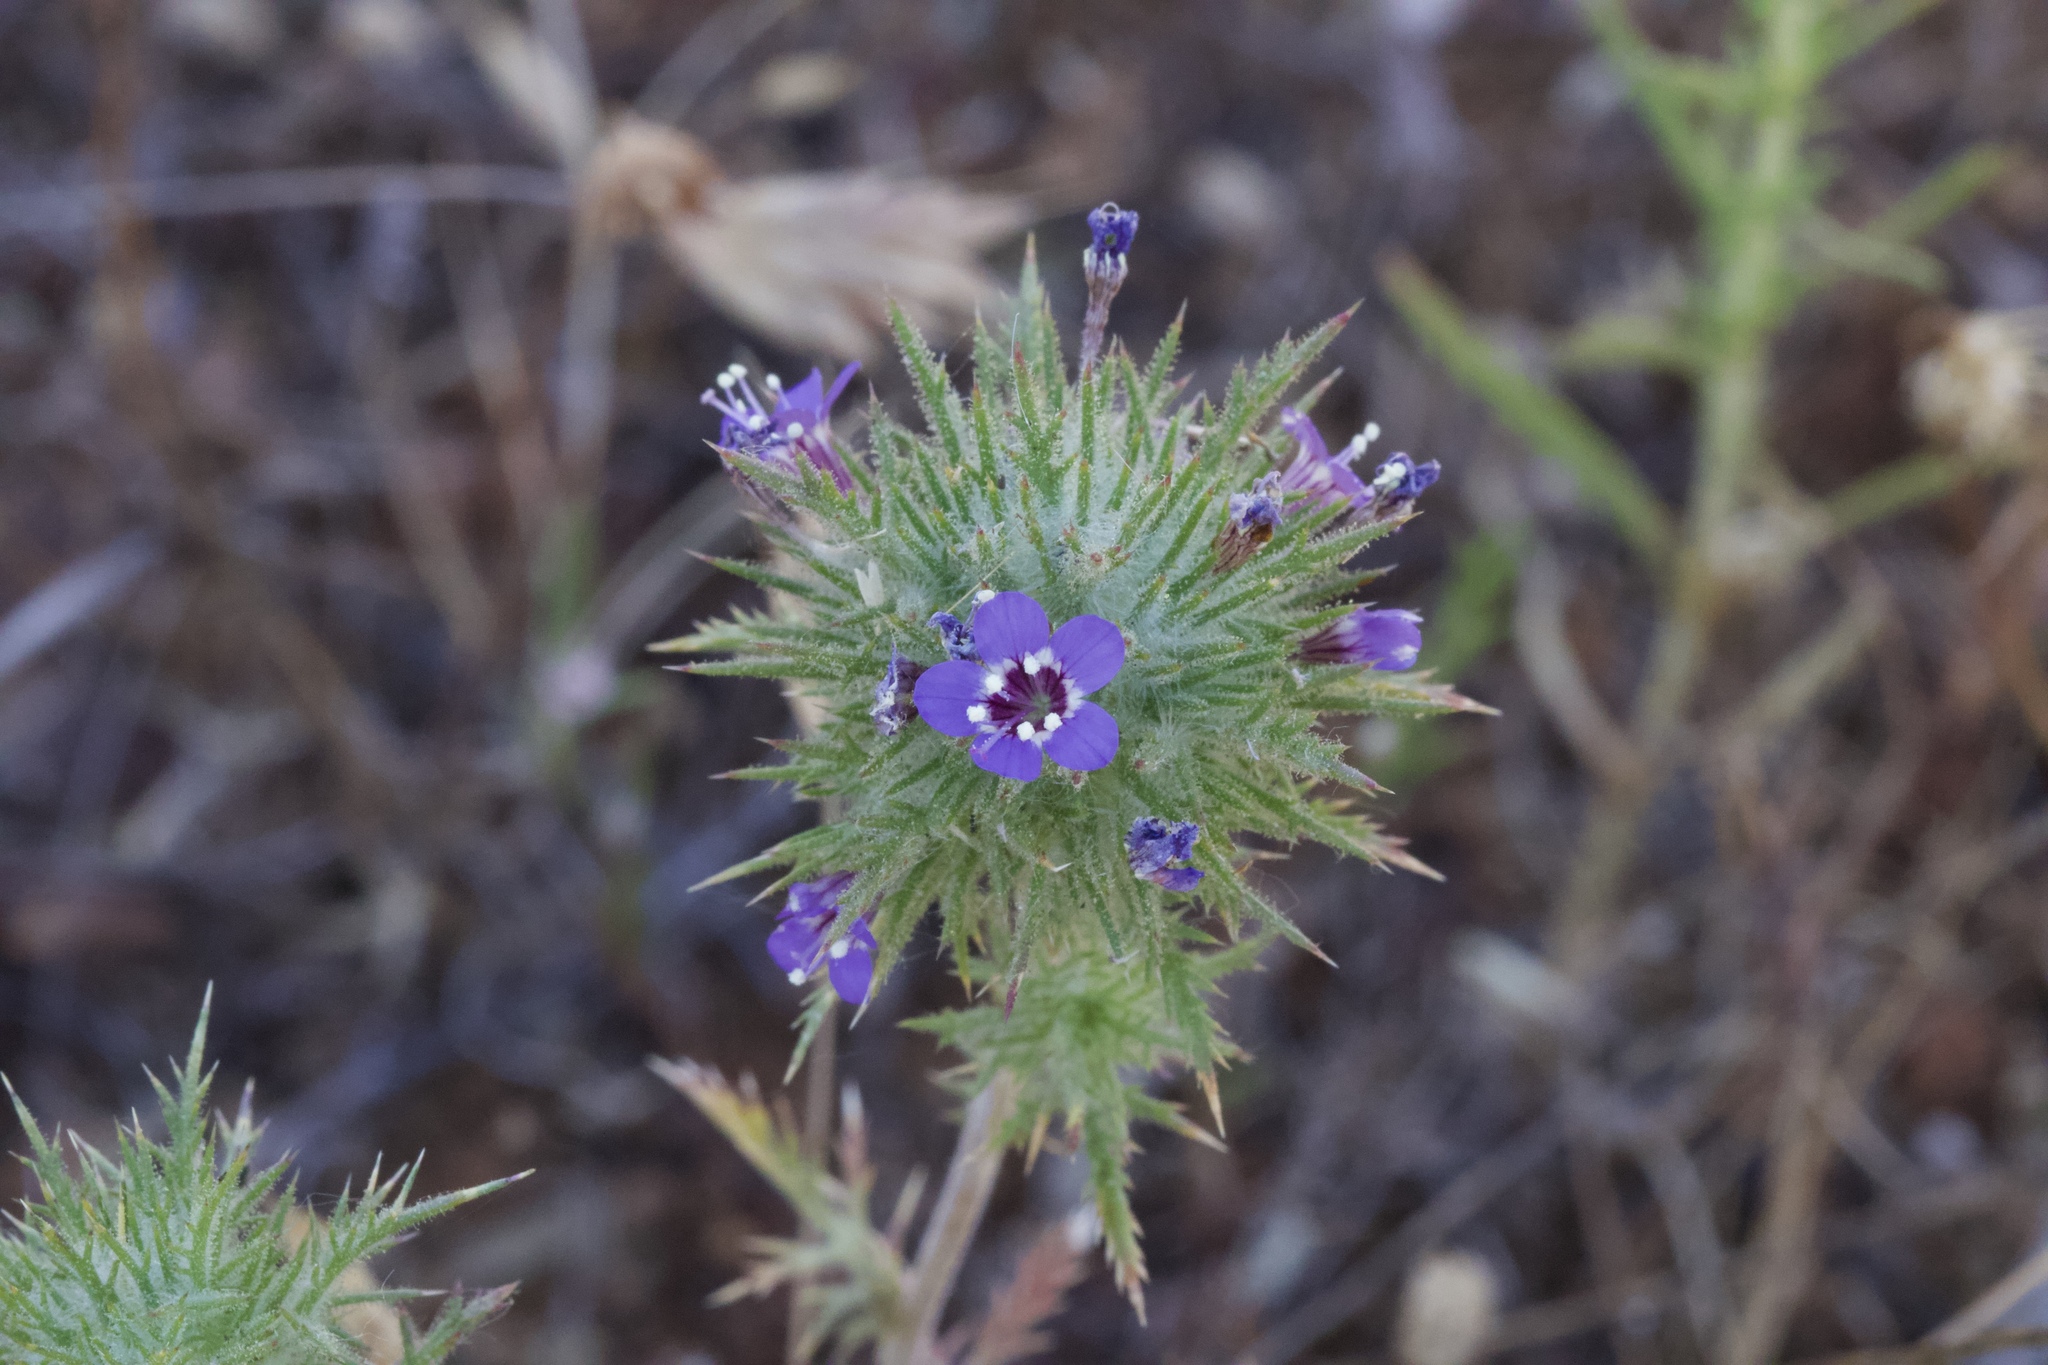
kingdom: Plantae
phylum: Tracheophyta
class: Magnoliopsida
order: Ericales
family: Polemoniaceae
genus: Navarretia
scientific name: Navarretia pubescens
